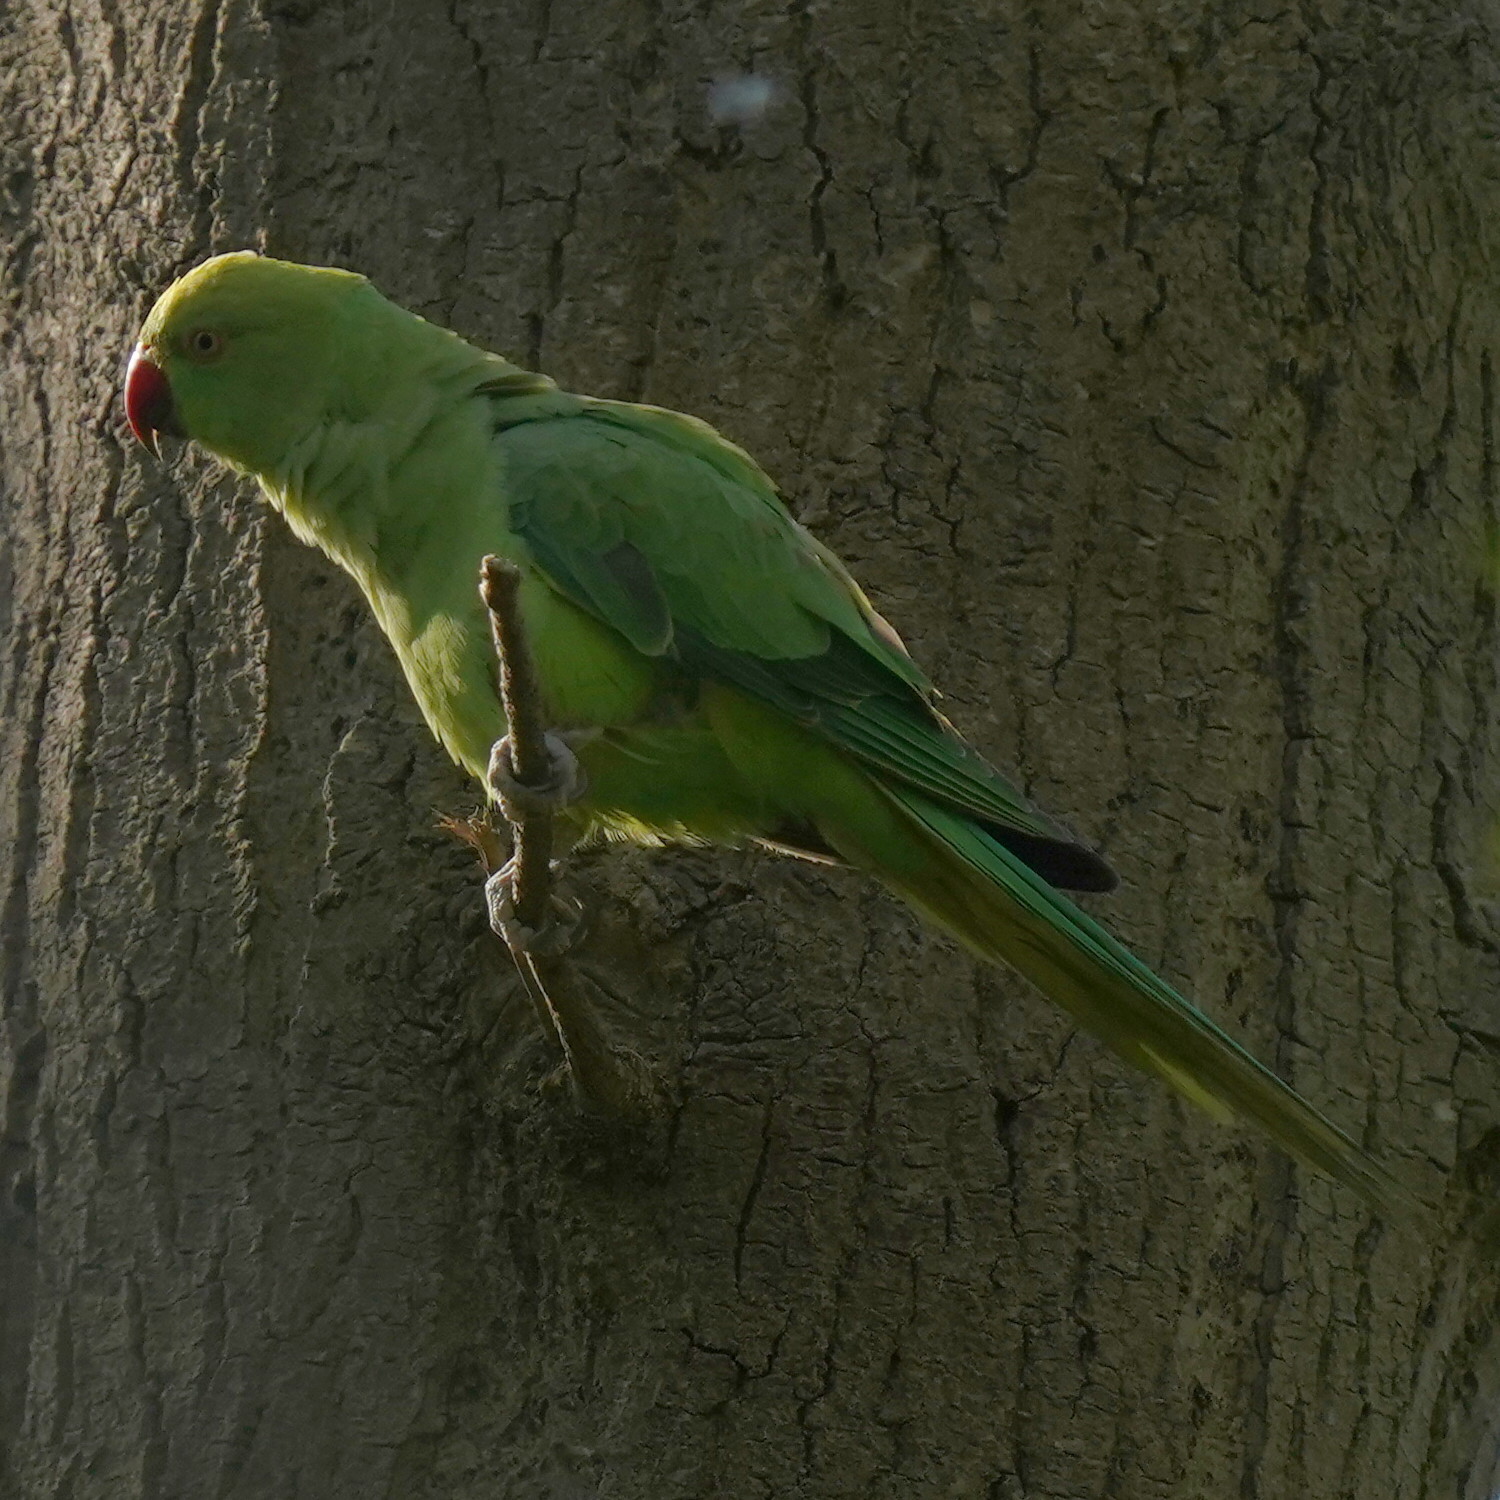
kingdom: Animalia
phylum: Chordata
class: Aves
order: Psittaciformes
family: Psittacidae
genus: Psittacula
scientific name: Psittacula krameri
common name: Rose-ringed parakeet
